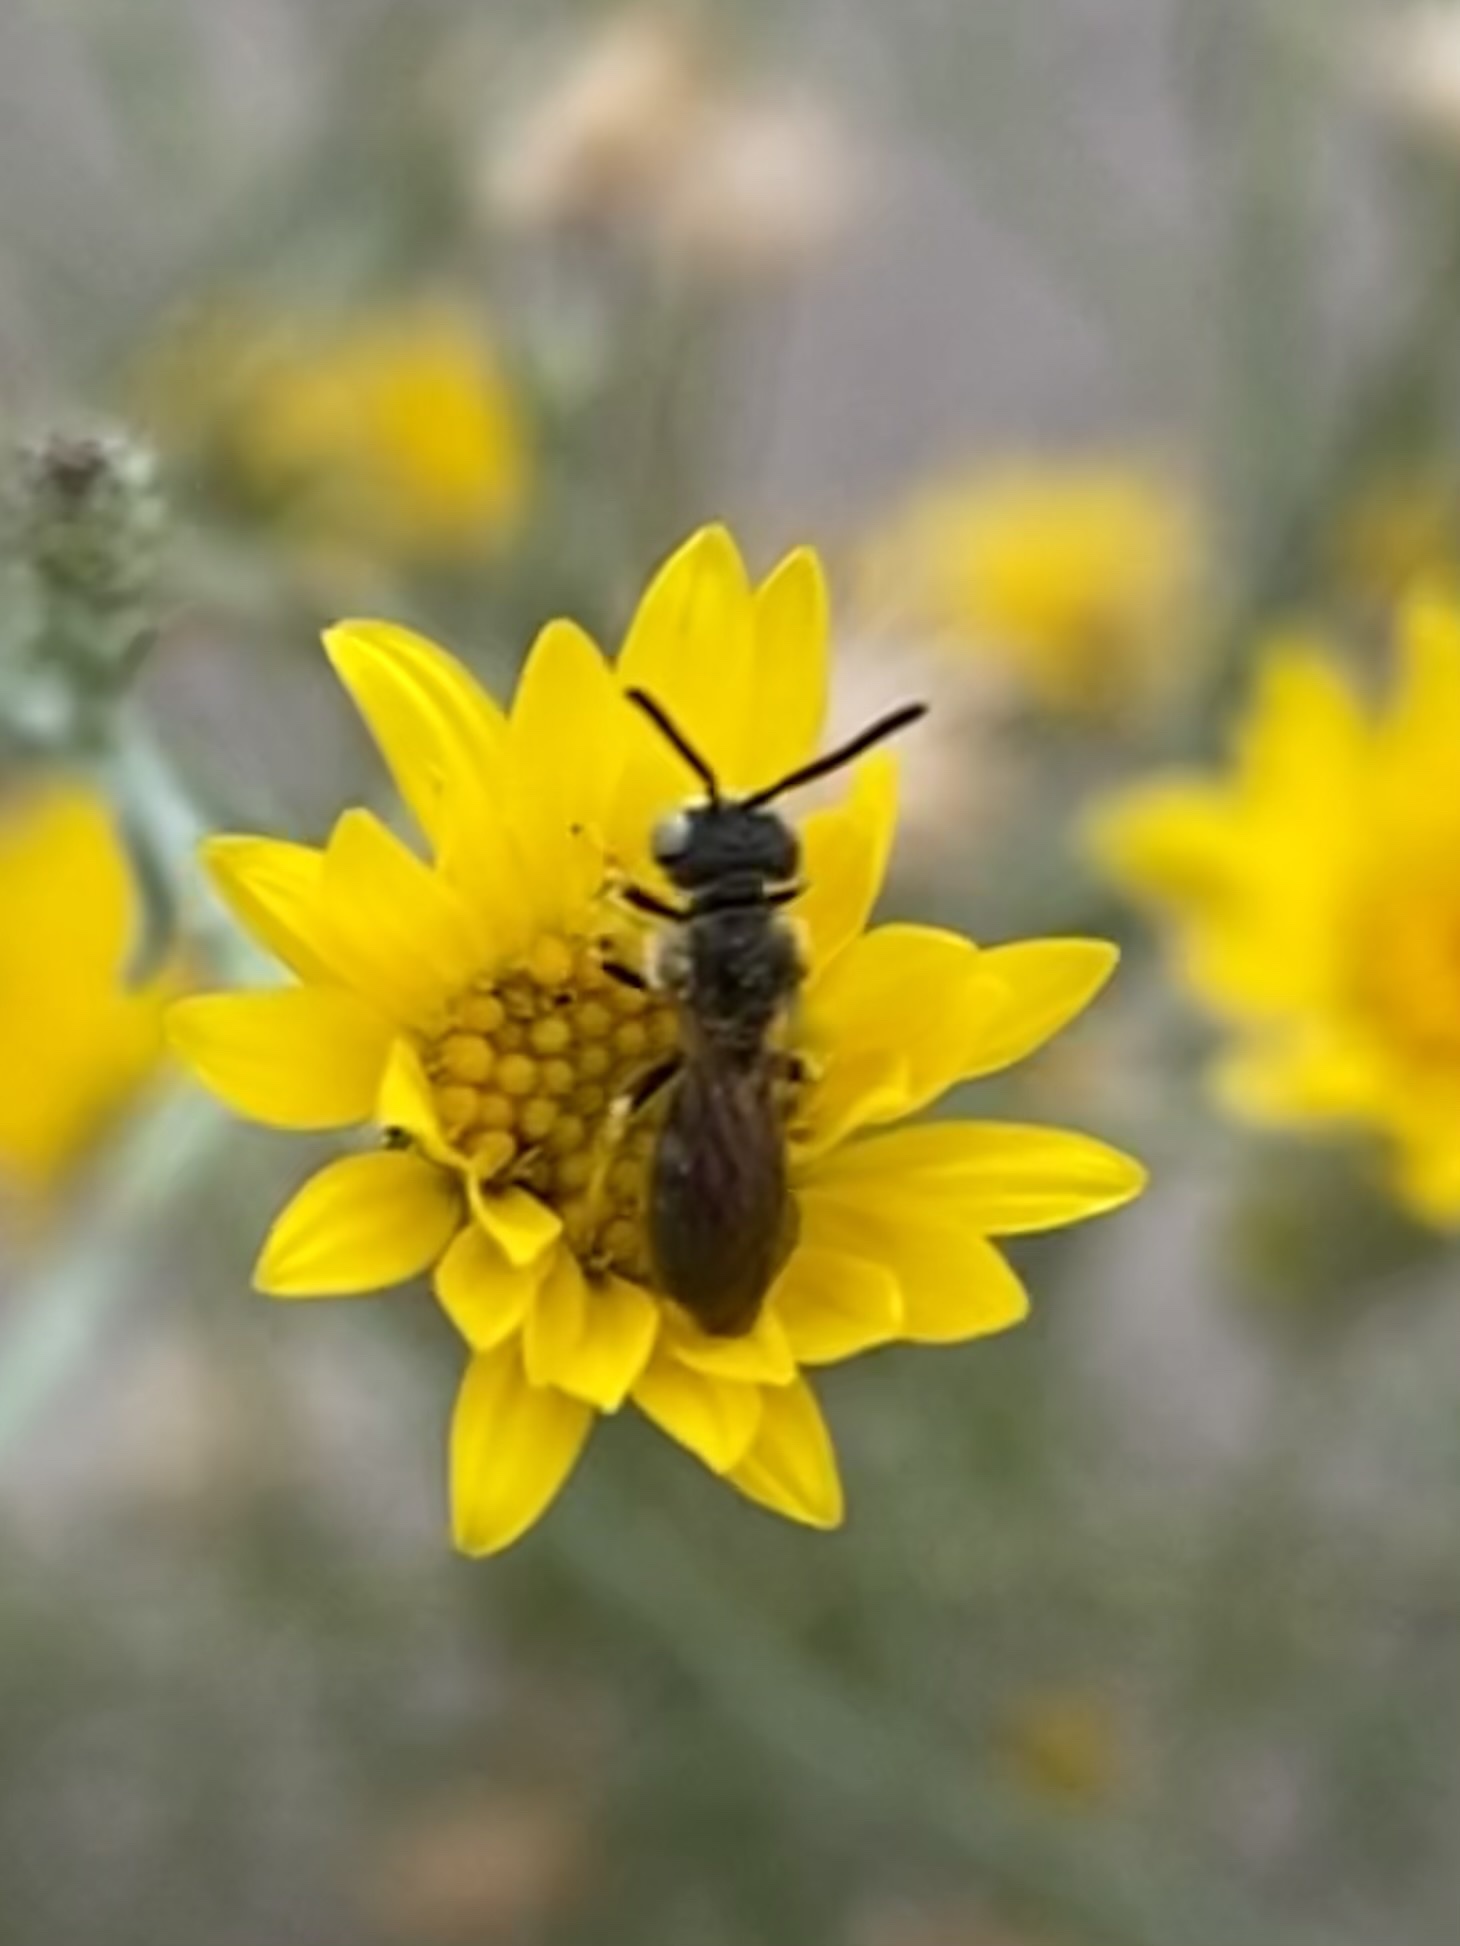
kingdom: Animalia
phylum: Arthropoda
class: Insecta
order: Hymenoptera
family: Andrenidae
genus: Pterosarus
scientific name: Pterosarus
